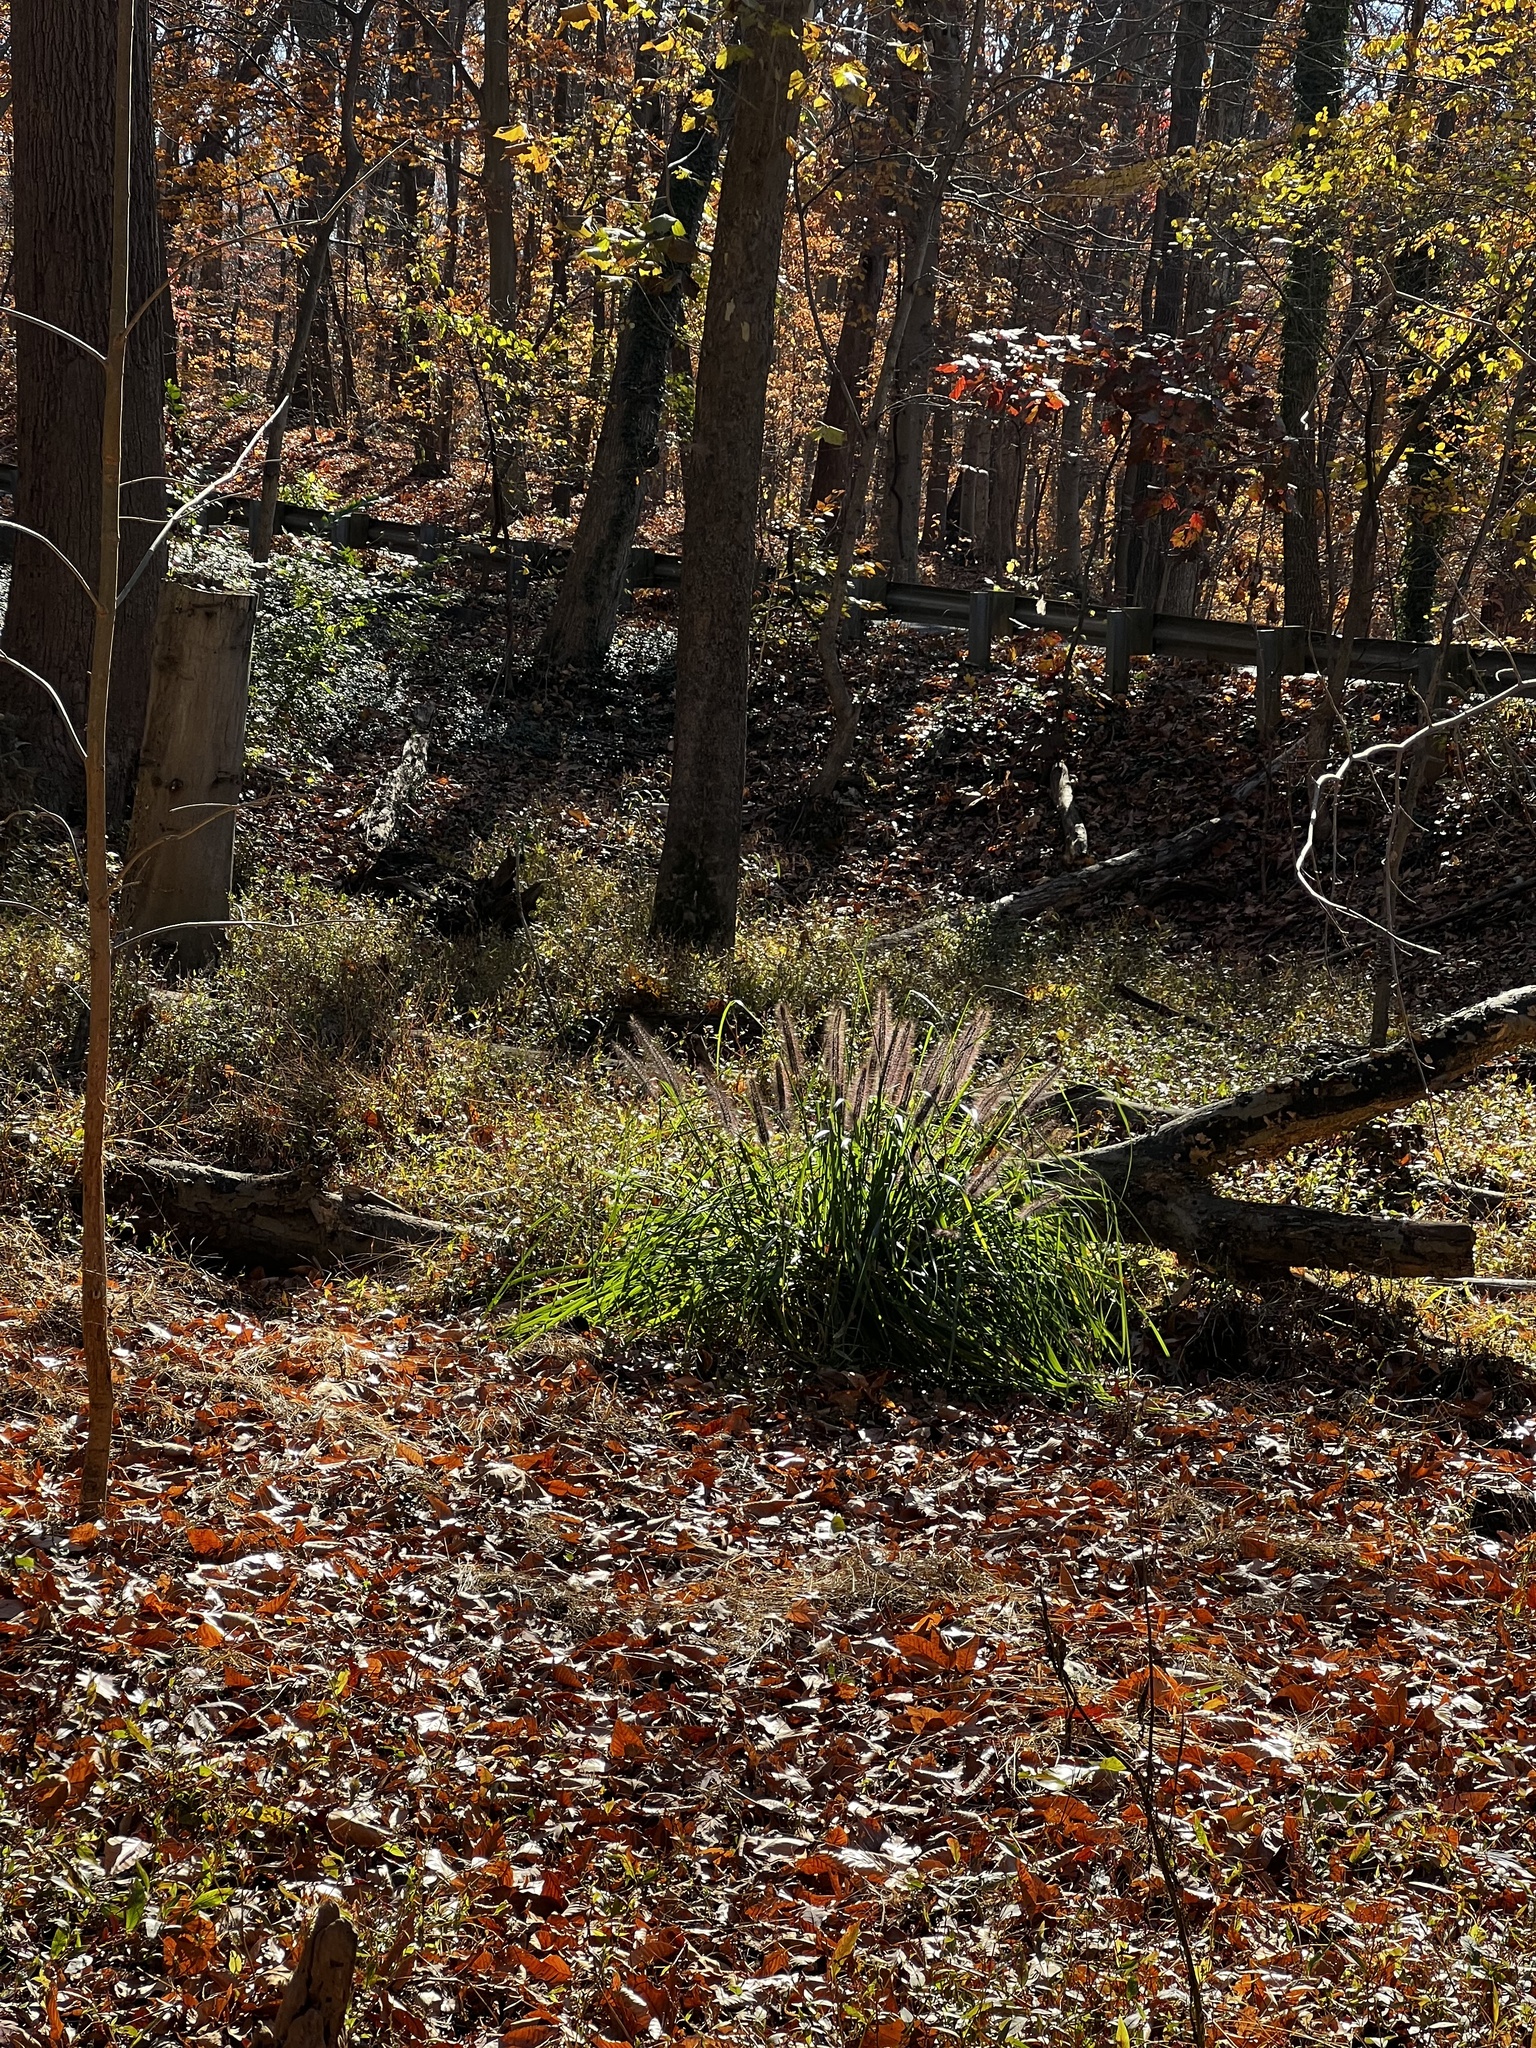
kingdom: Plantae
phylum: Tracheophyta
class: Liliopsida
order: Poales
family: Poaceae
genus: Cenchrus
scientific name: Cenchrus alopecuroides
